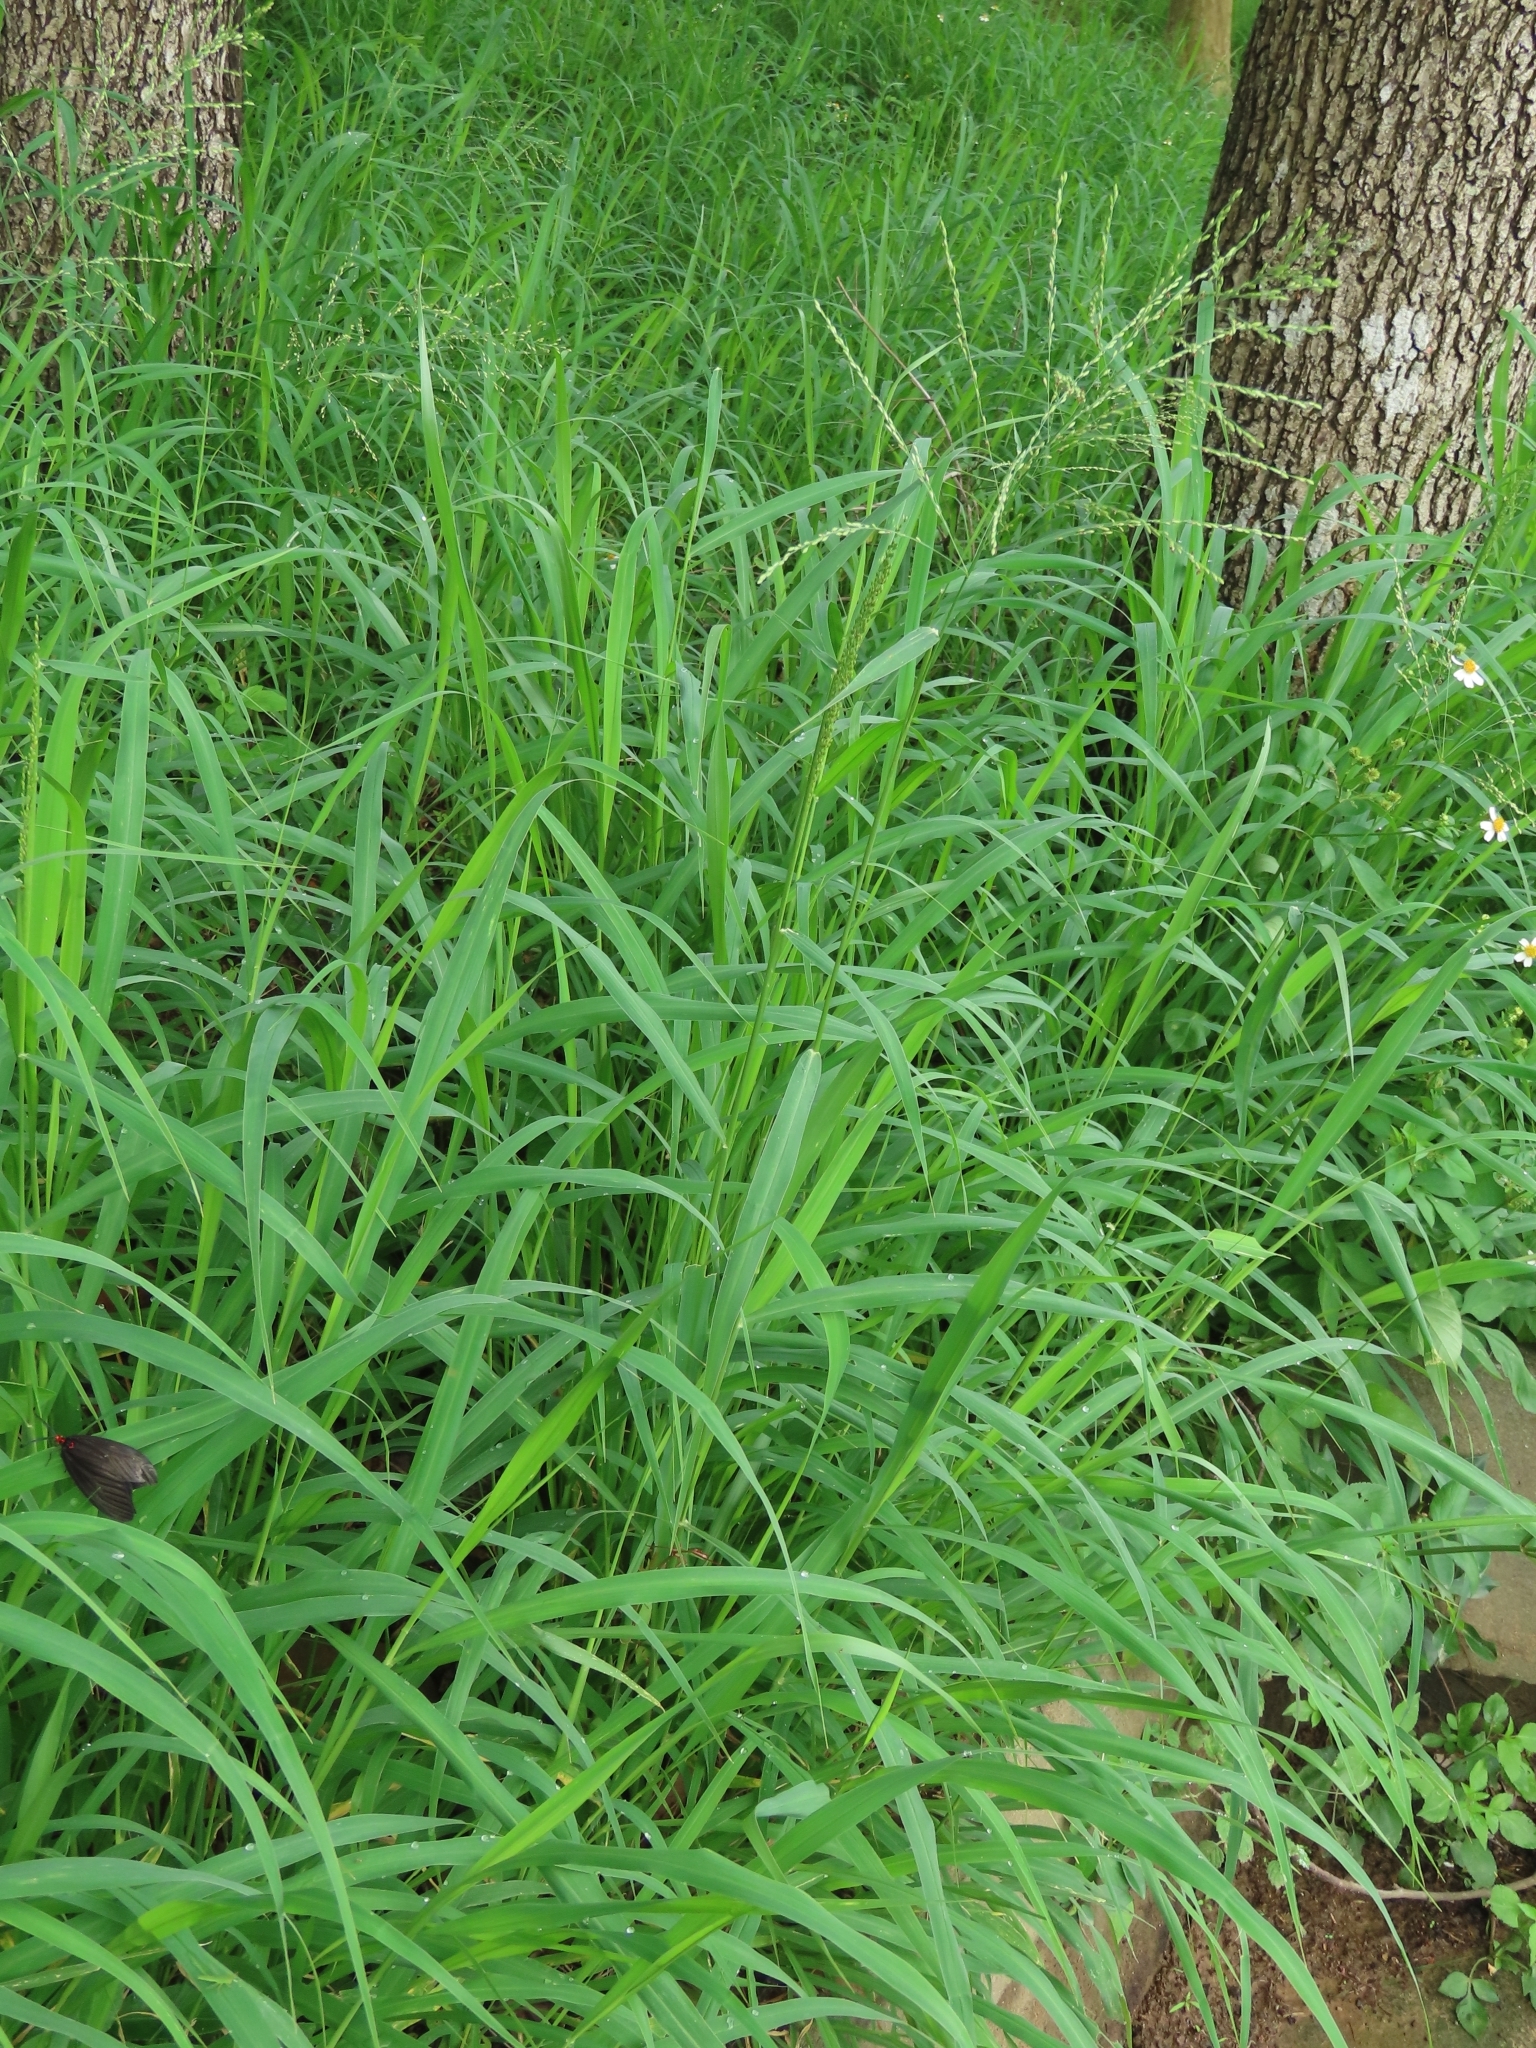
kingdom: Plantae
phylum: Tracheophyta
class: Liliopsida
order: Poales
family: Poaceae
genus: Megathyrsus
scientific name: Megathyrsus maximus
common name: Guineagrass
